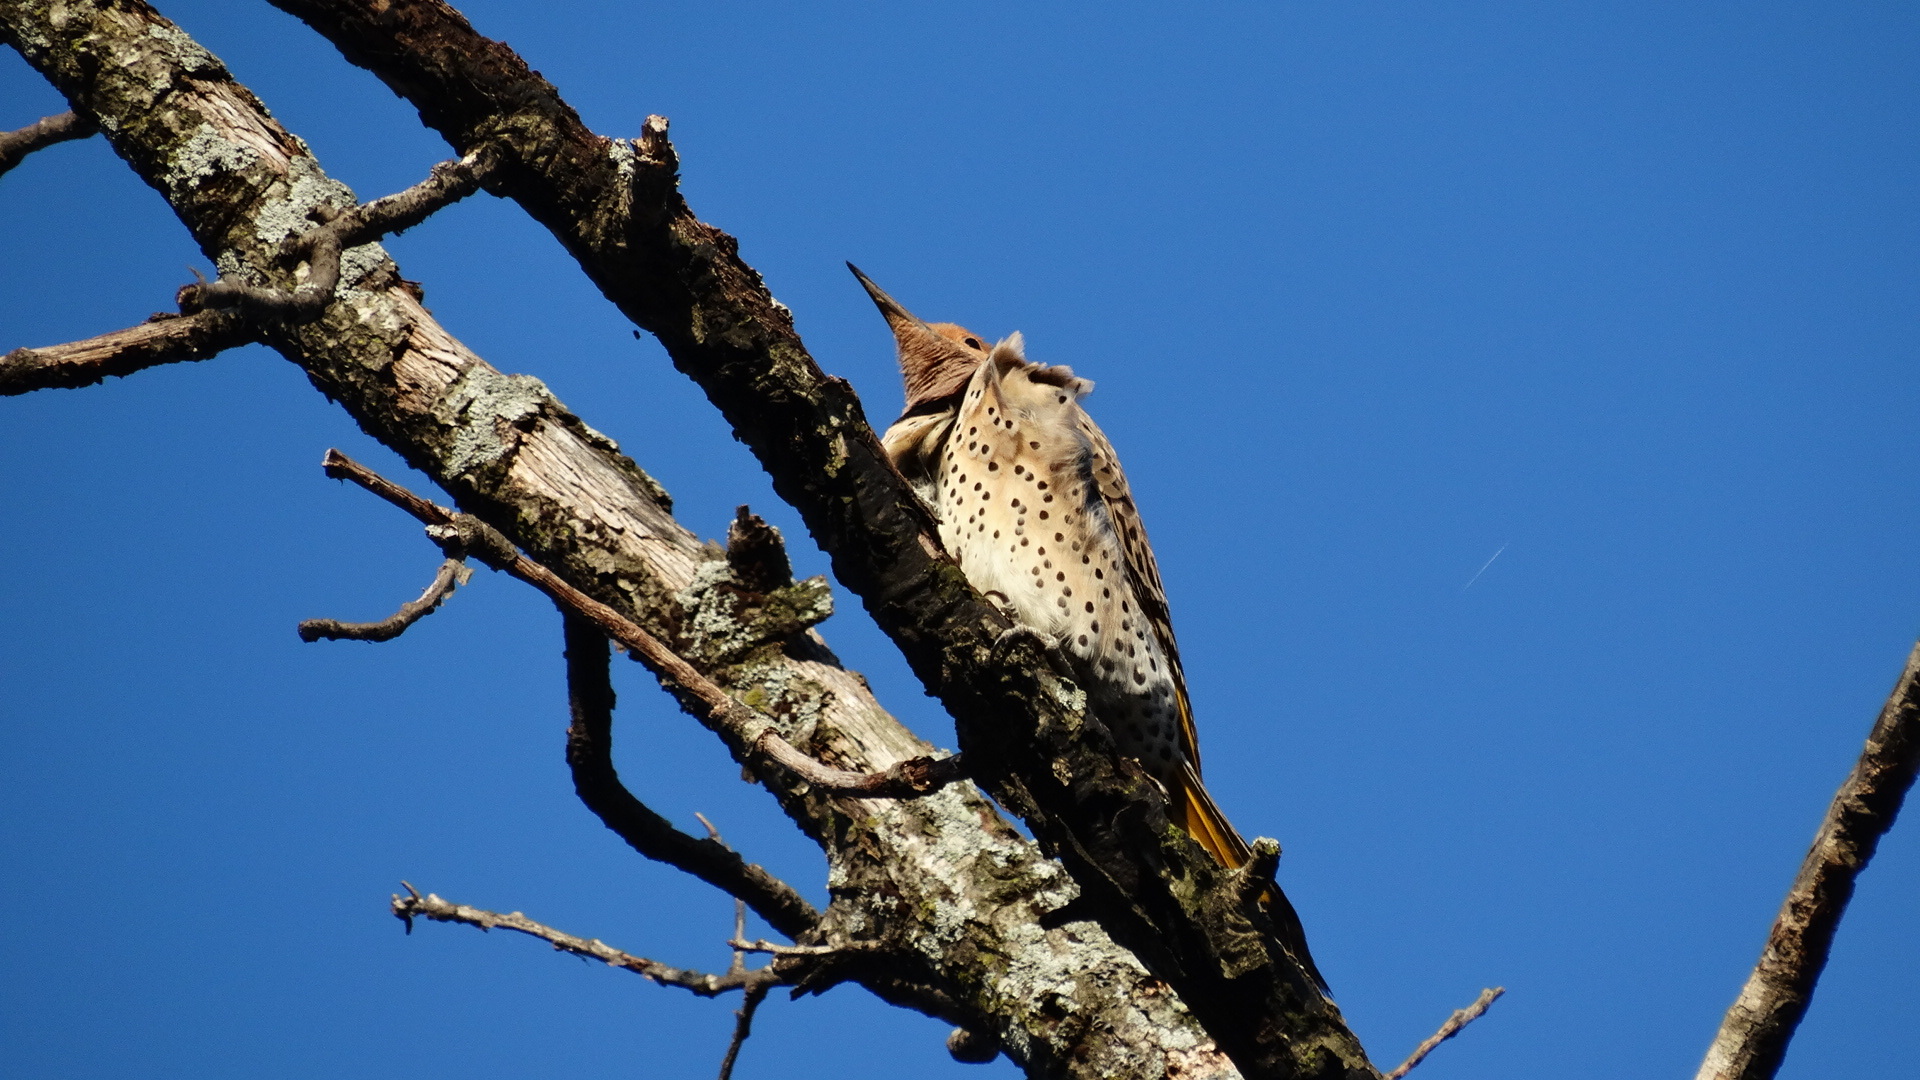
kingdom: Animalia
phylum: Chordata
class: Aves
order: Piciformes
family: Picidae
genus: Colaptes
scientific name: Colaptes auratus
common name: Northern flicker
